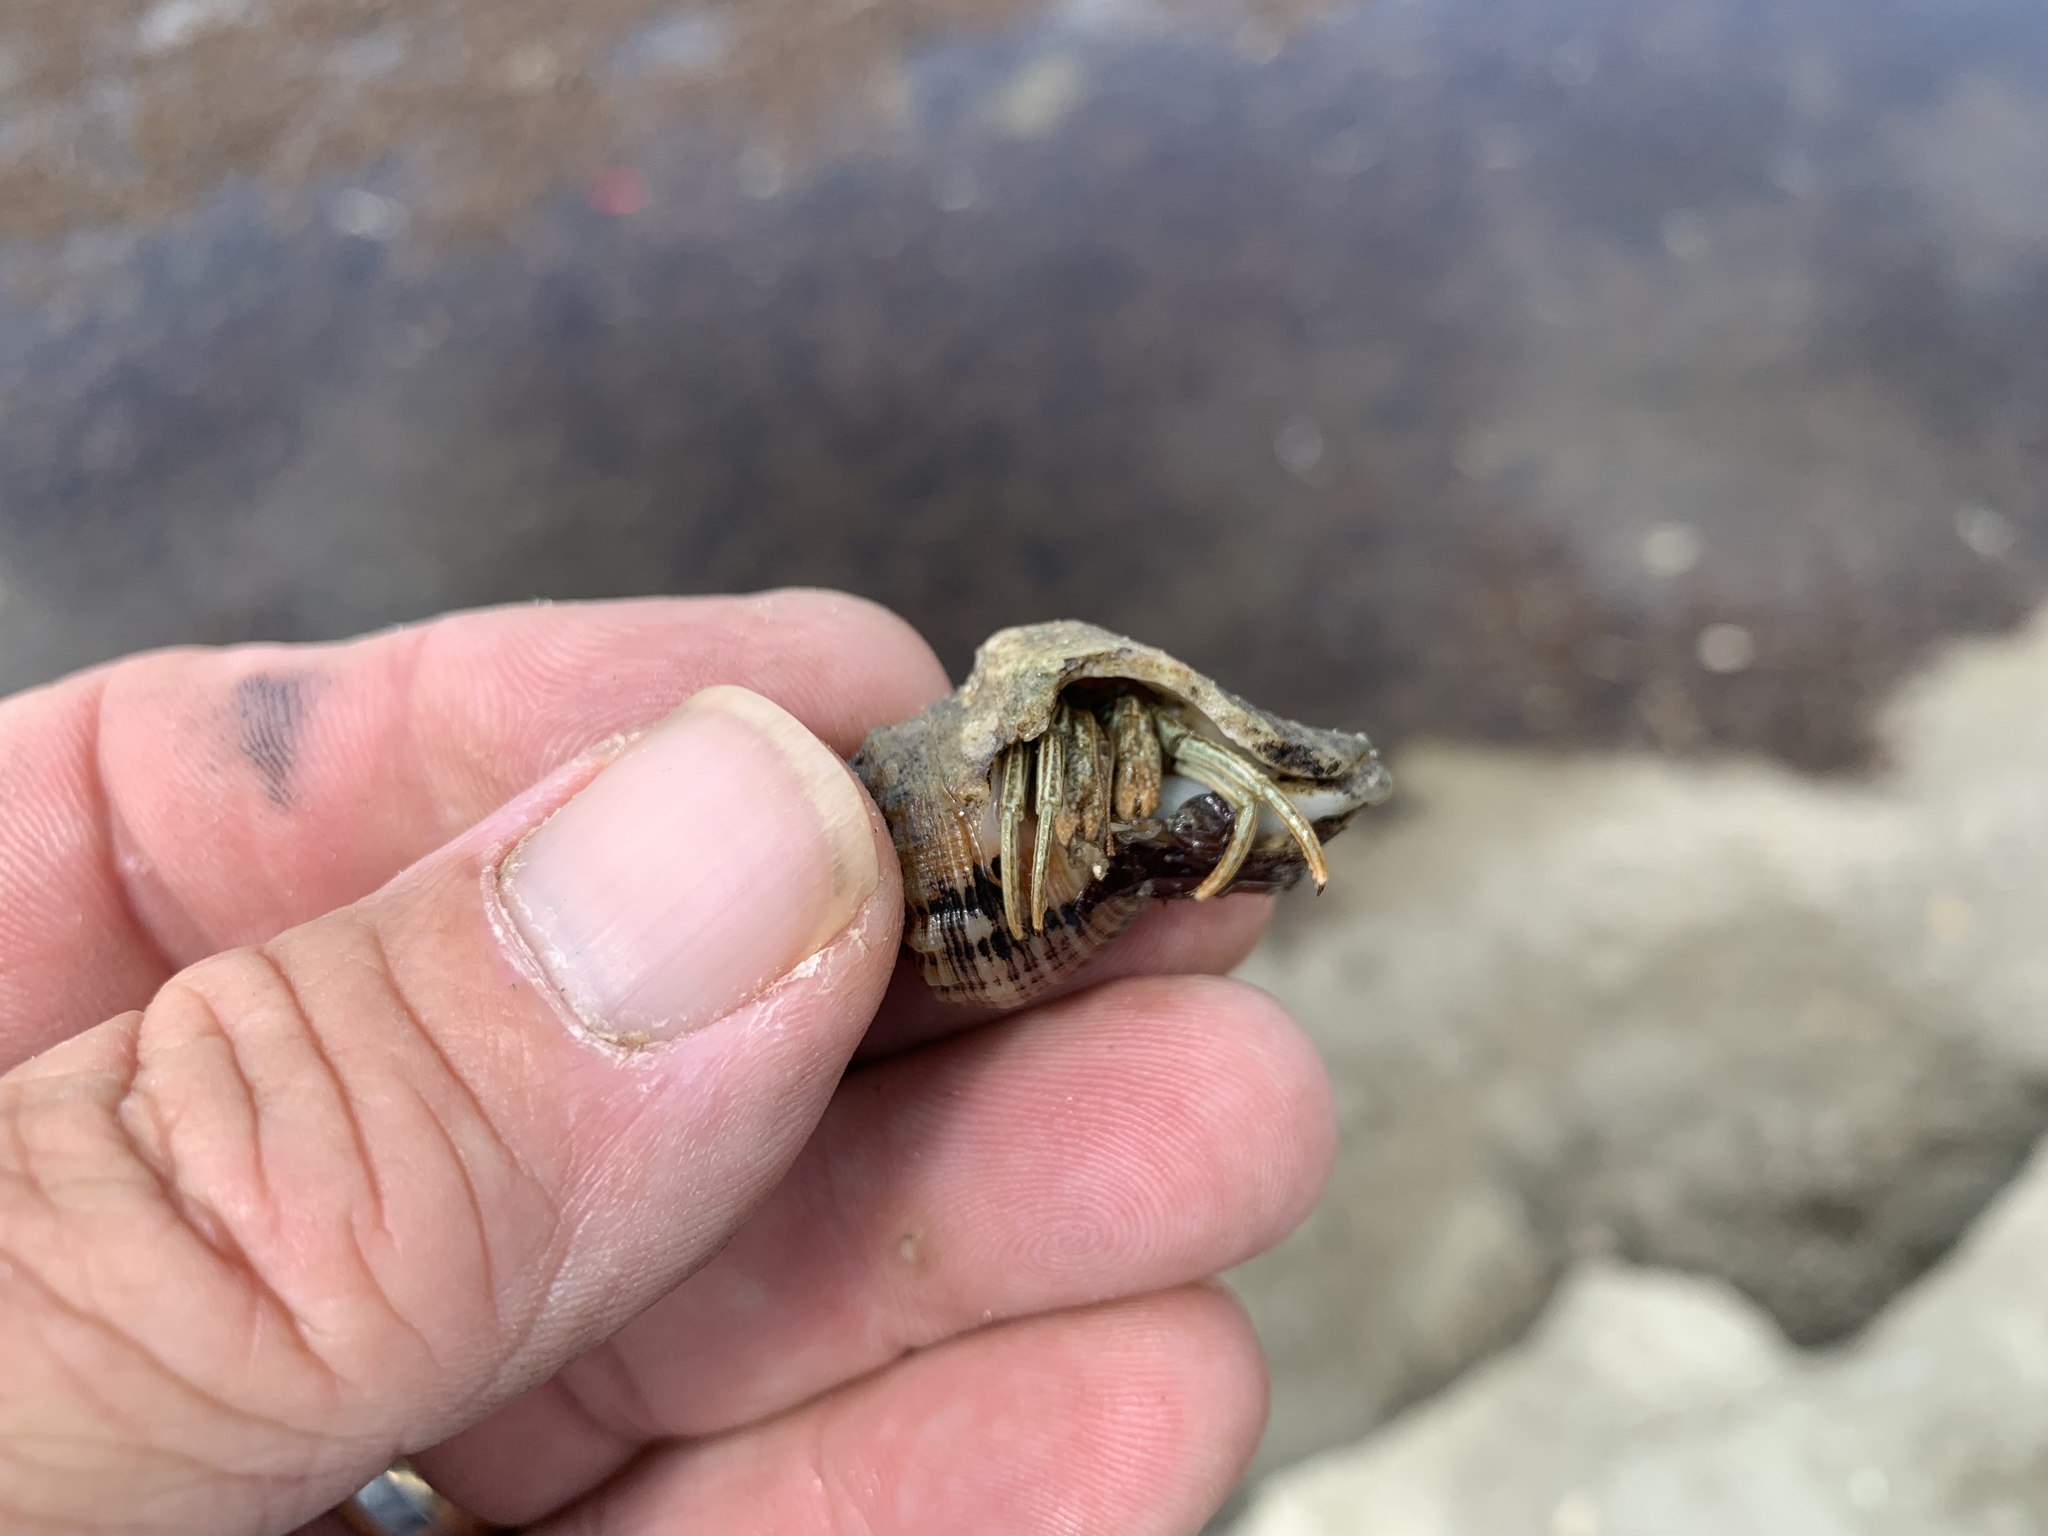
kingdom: Animalia
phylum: Arthropoda
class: Malacostraca
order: Decapoda
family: Diogenidae
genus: Clibanarius
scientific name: Clibanarius vittatus
